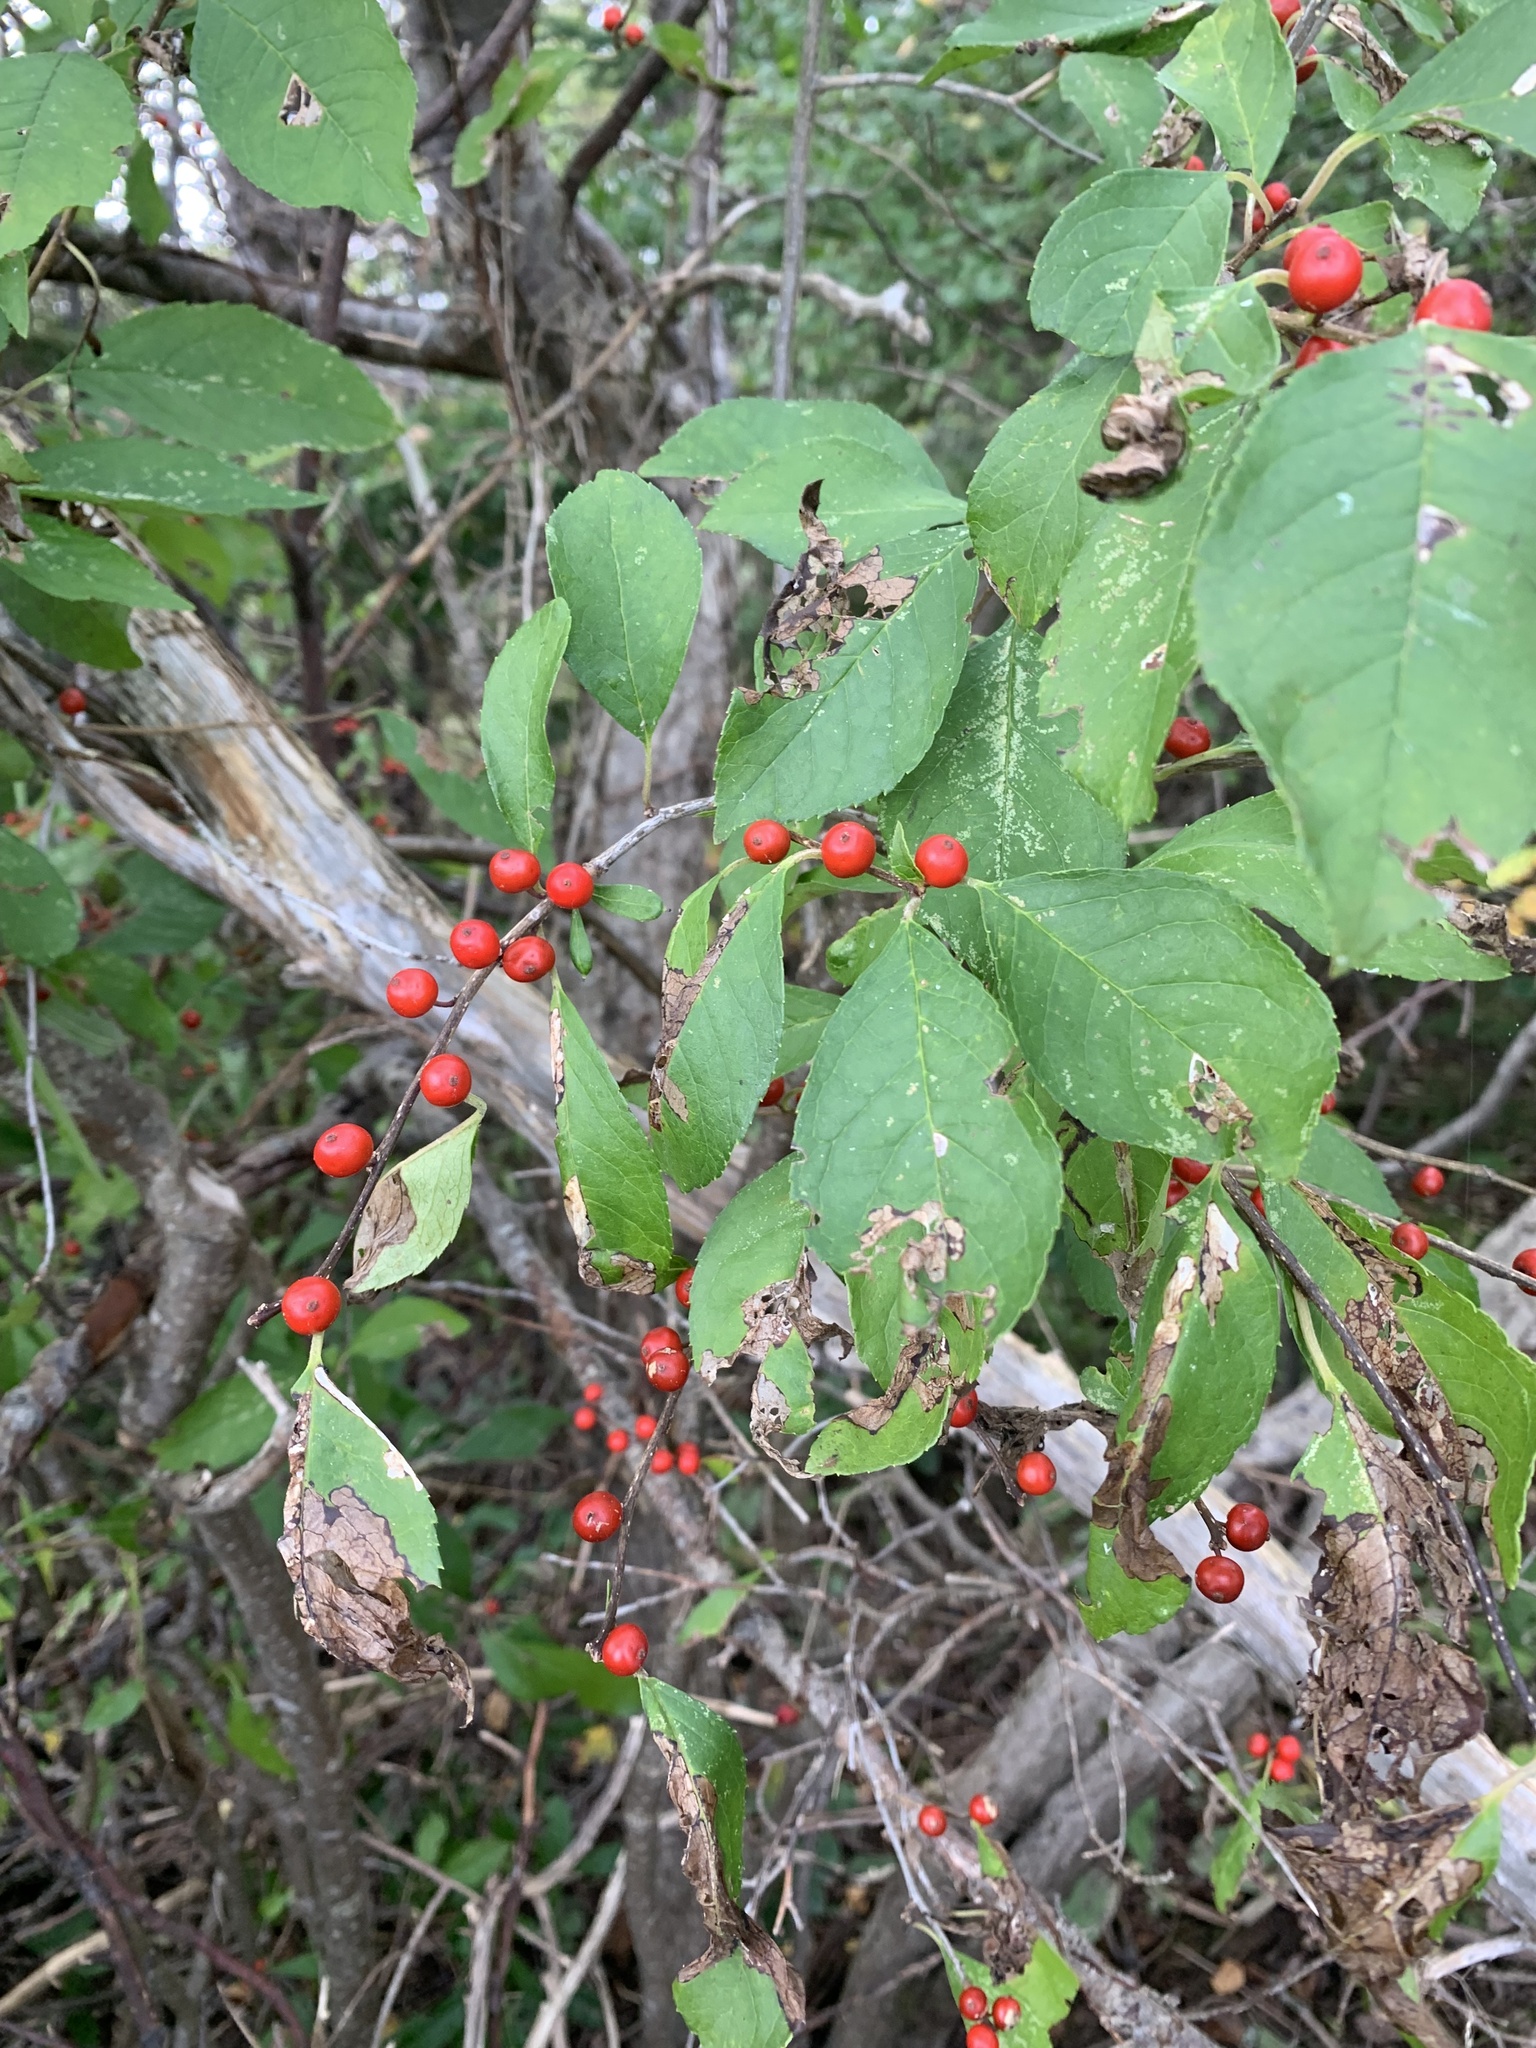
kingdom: Plantae
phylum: Tracheophyta
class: Magnoliopsida
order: Aquifoliales
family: Aquifoliaceae
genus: Ilex
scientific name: Ilex verticillata
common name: Virginia winterberry
